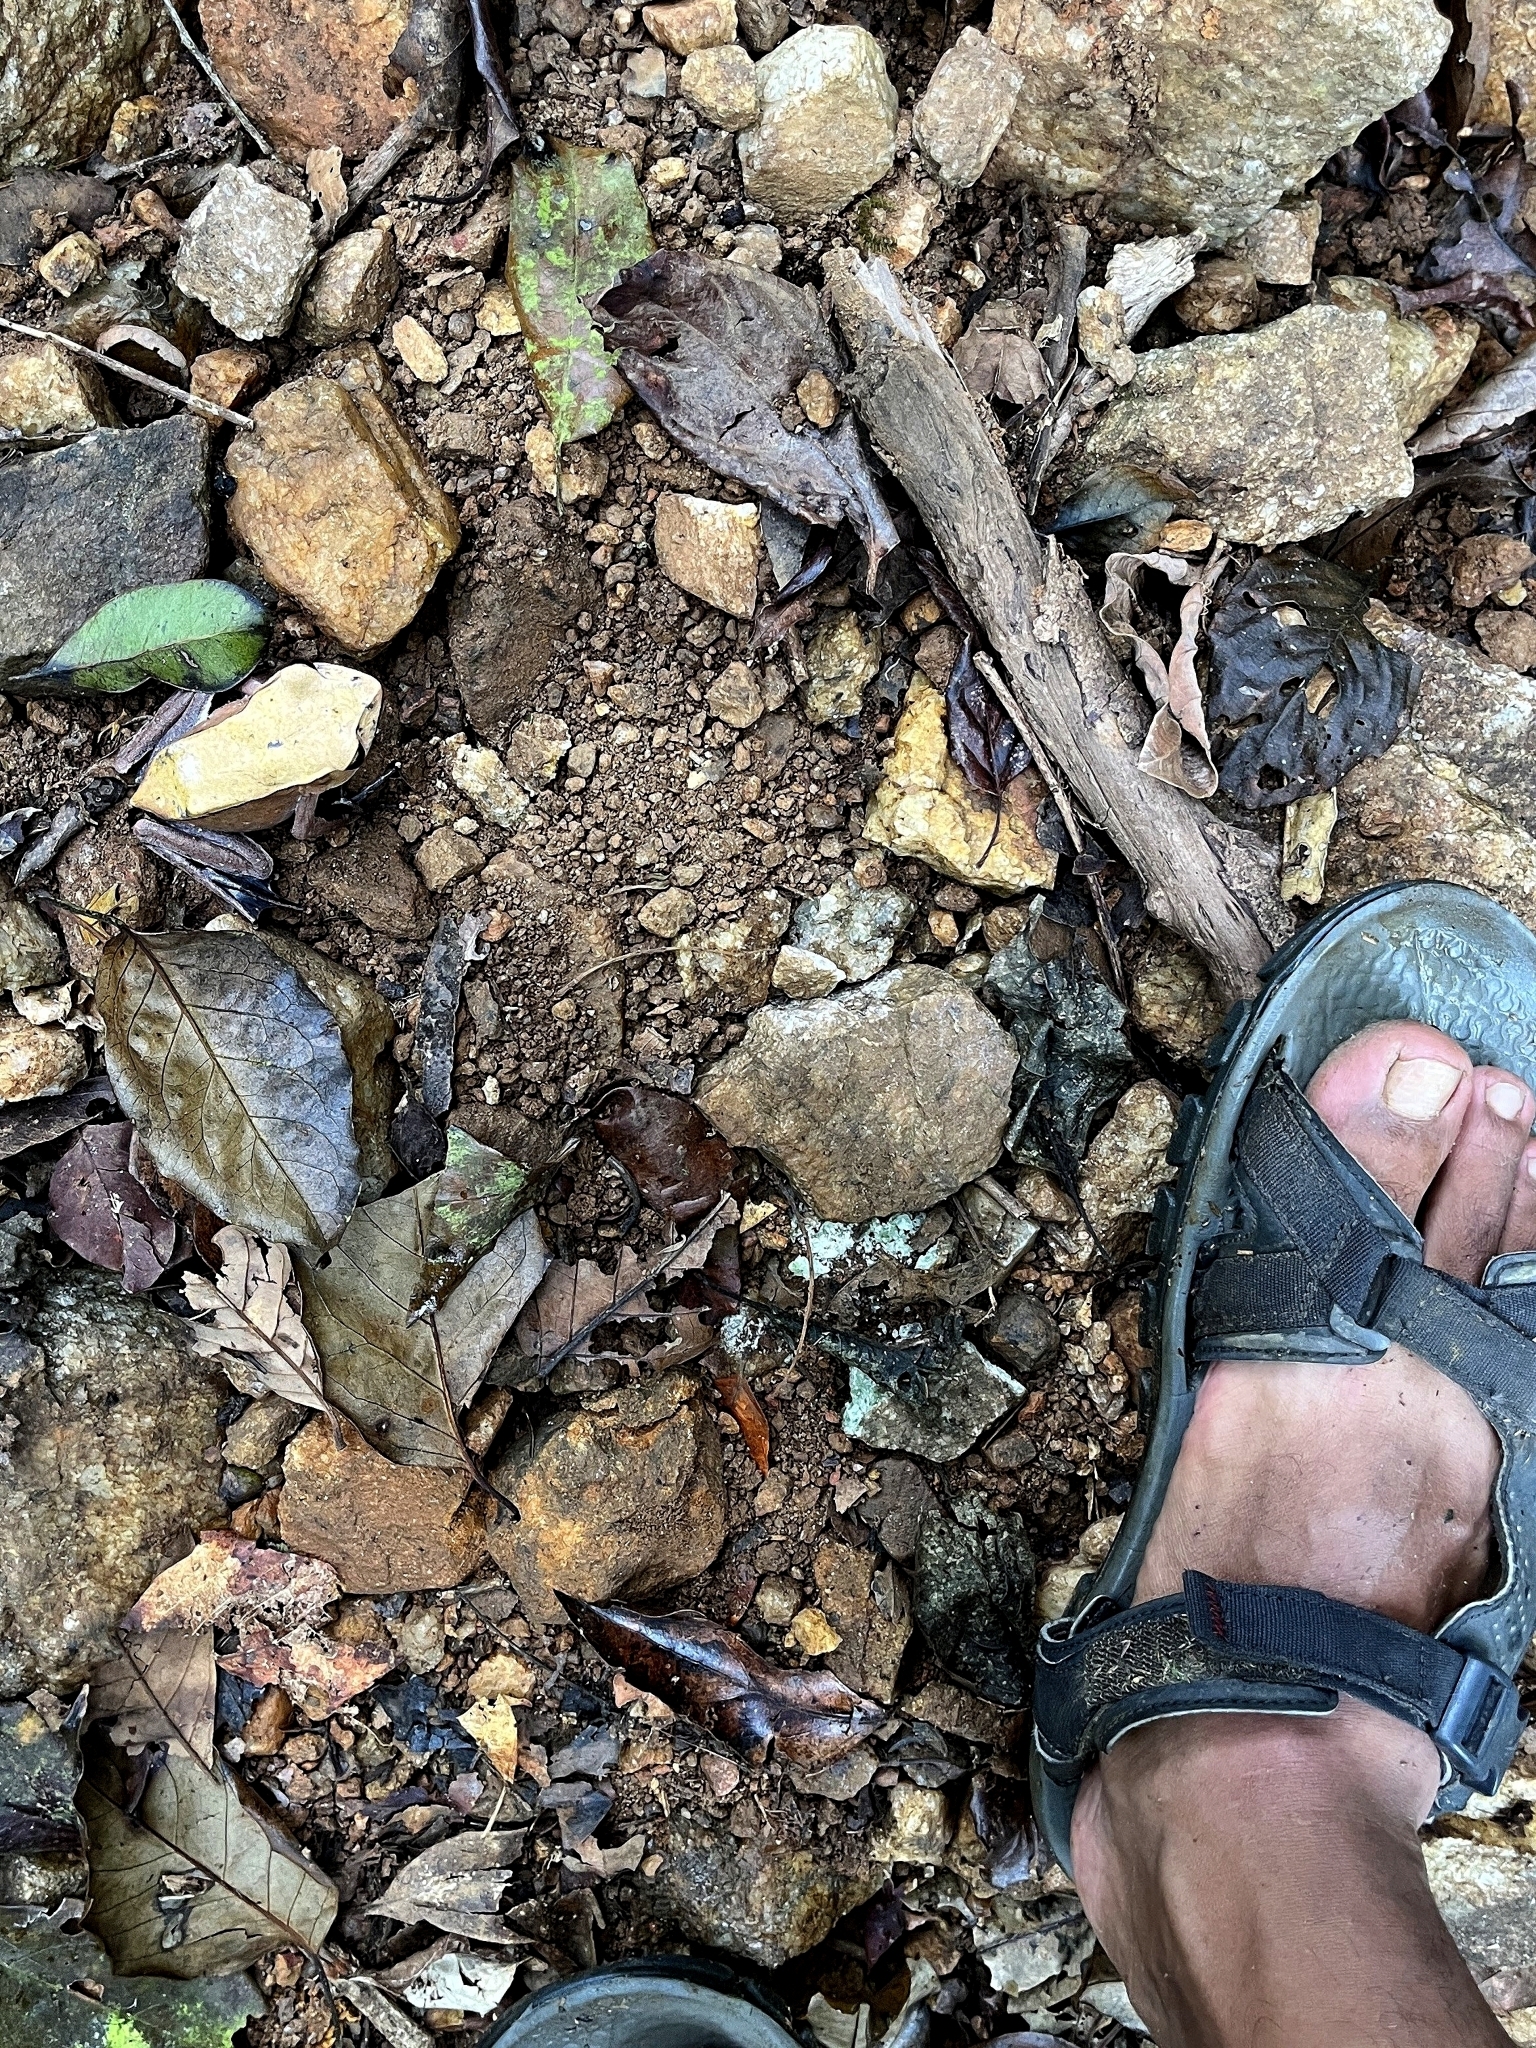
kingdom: Animalia
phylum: Chordata
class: Amphibia
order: Anura
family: Ranidae
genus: Clinotarsus
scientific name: Clinotarsus curtipes
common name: Bicoloured frog
